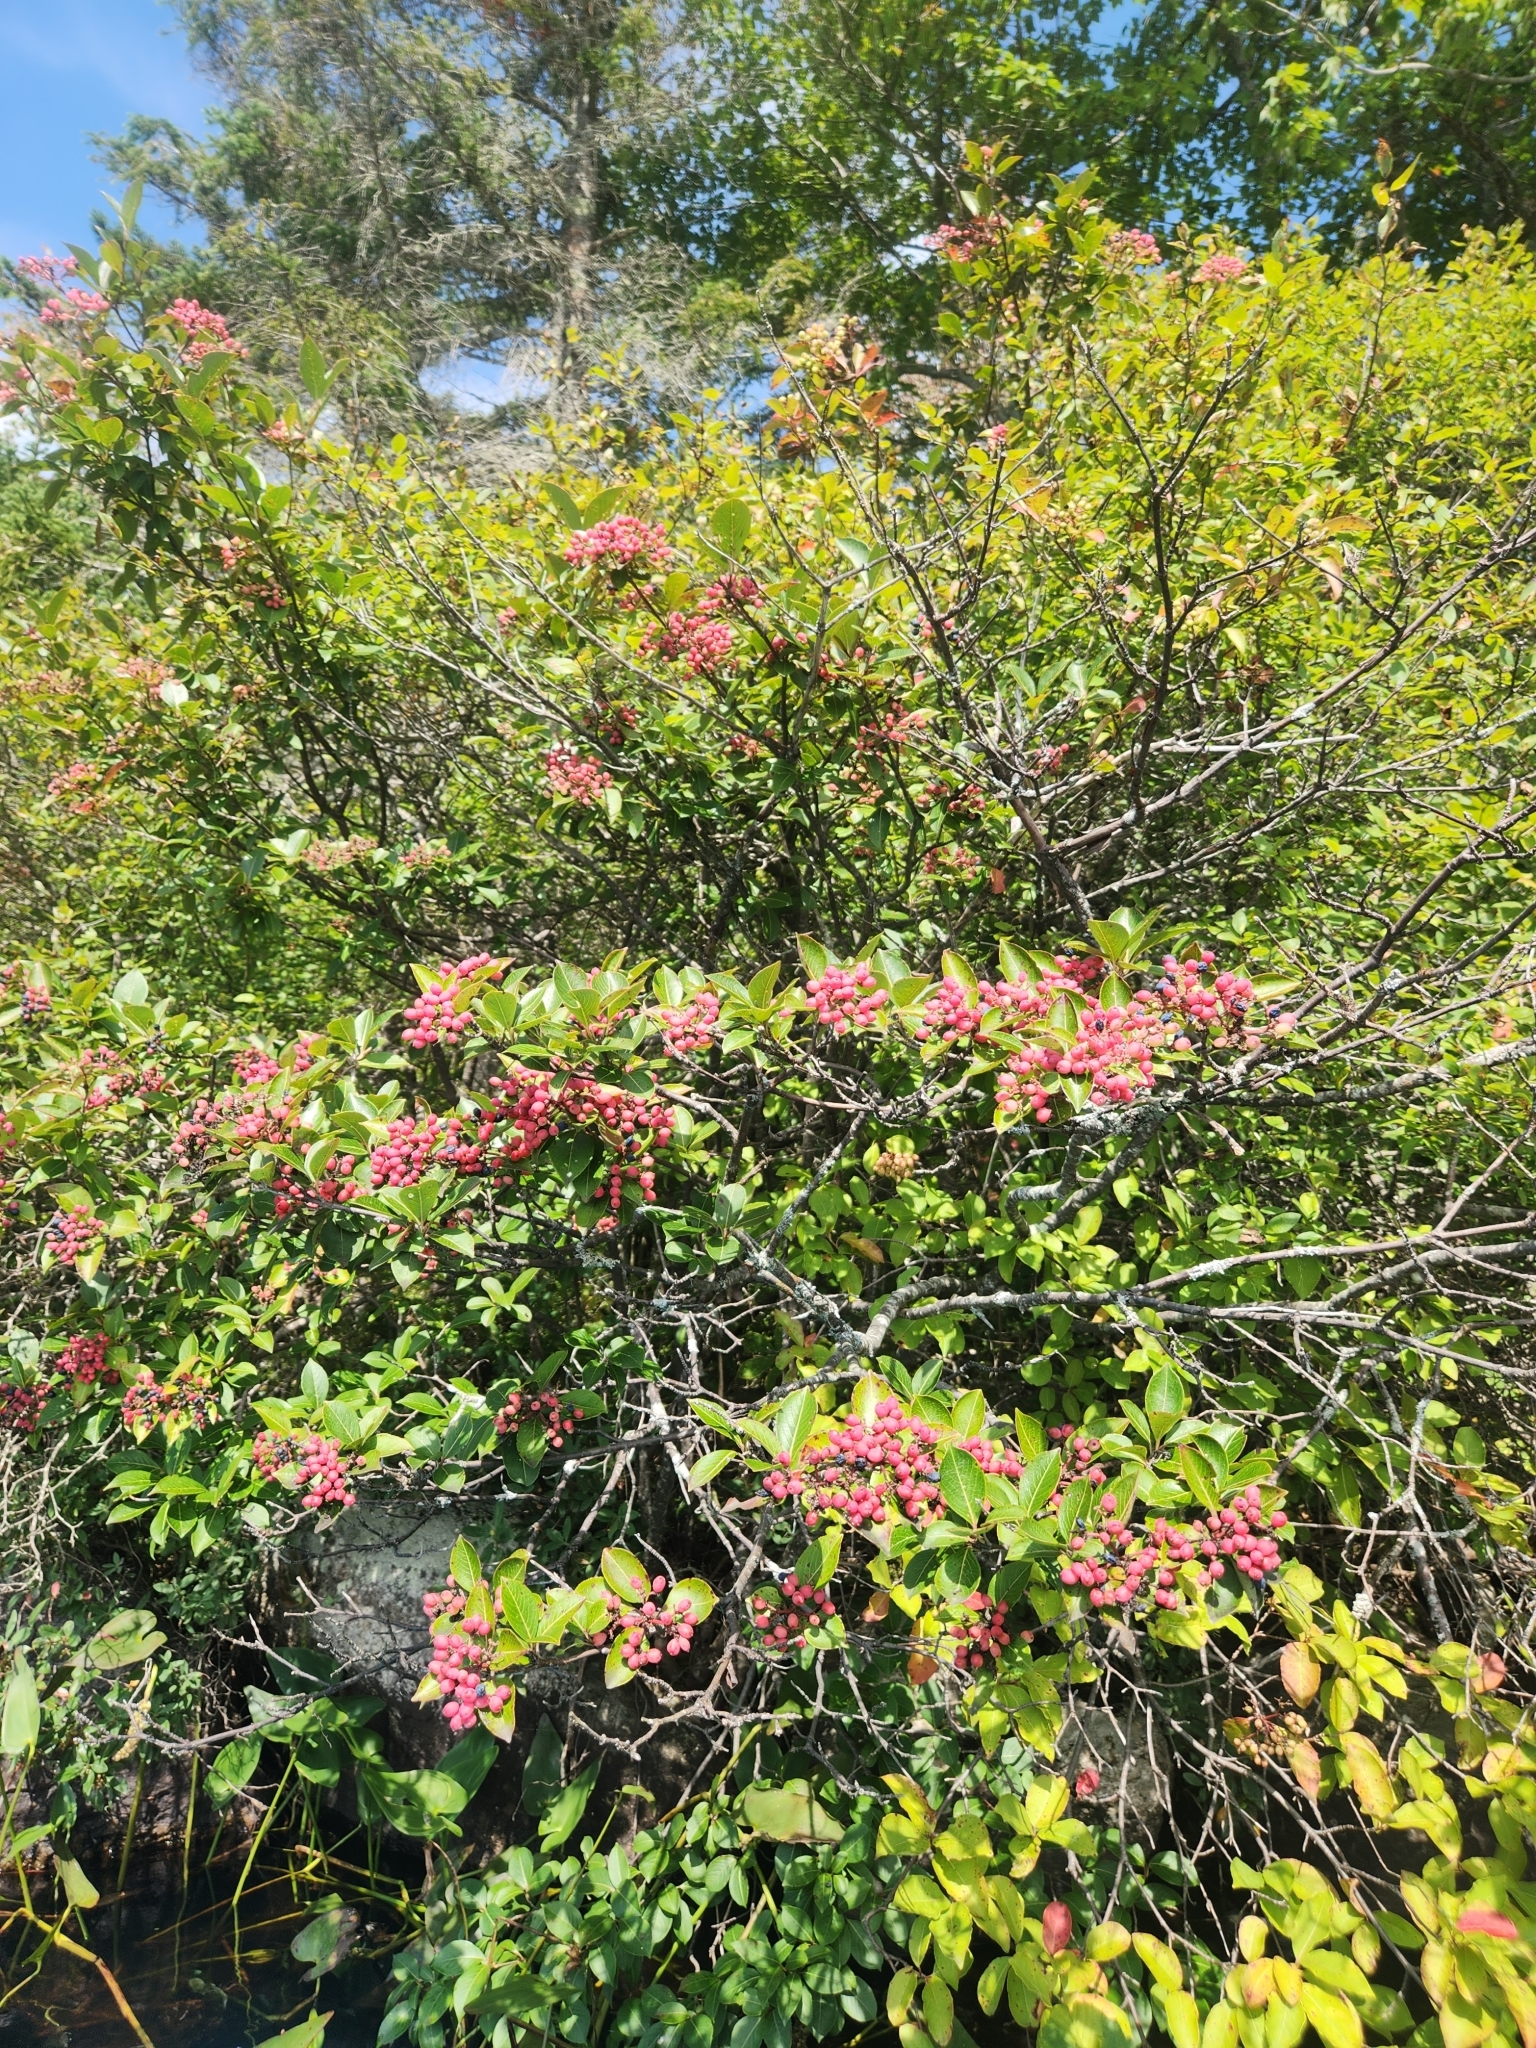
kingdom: Plantae
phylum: Tracheophyta
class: Magnoliopsida
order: Dipsacales
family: Viburnaceae
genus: Viburnum
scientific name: Viburnum cassinoides
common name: Swamp haw
